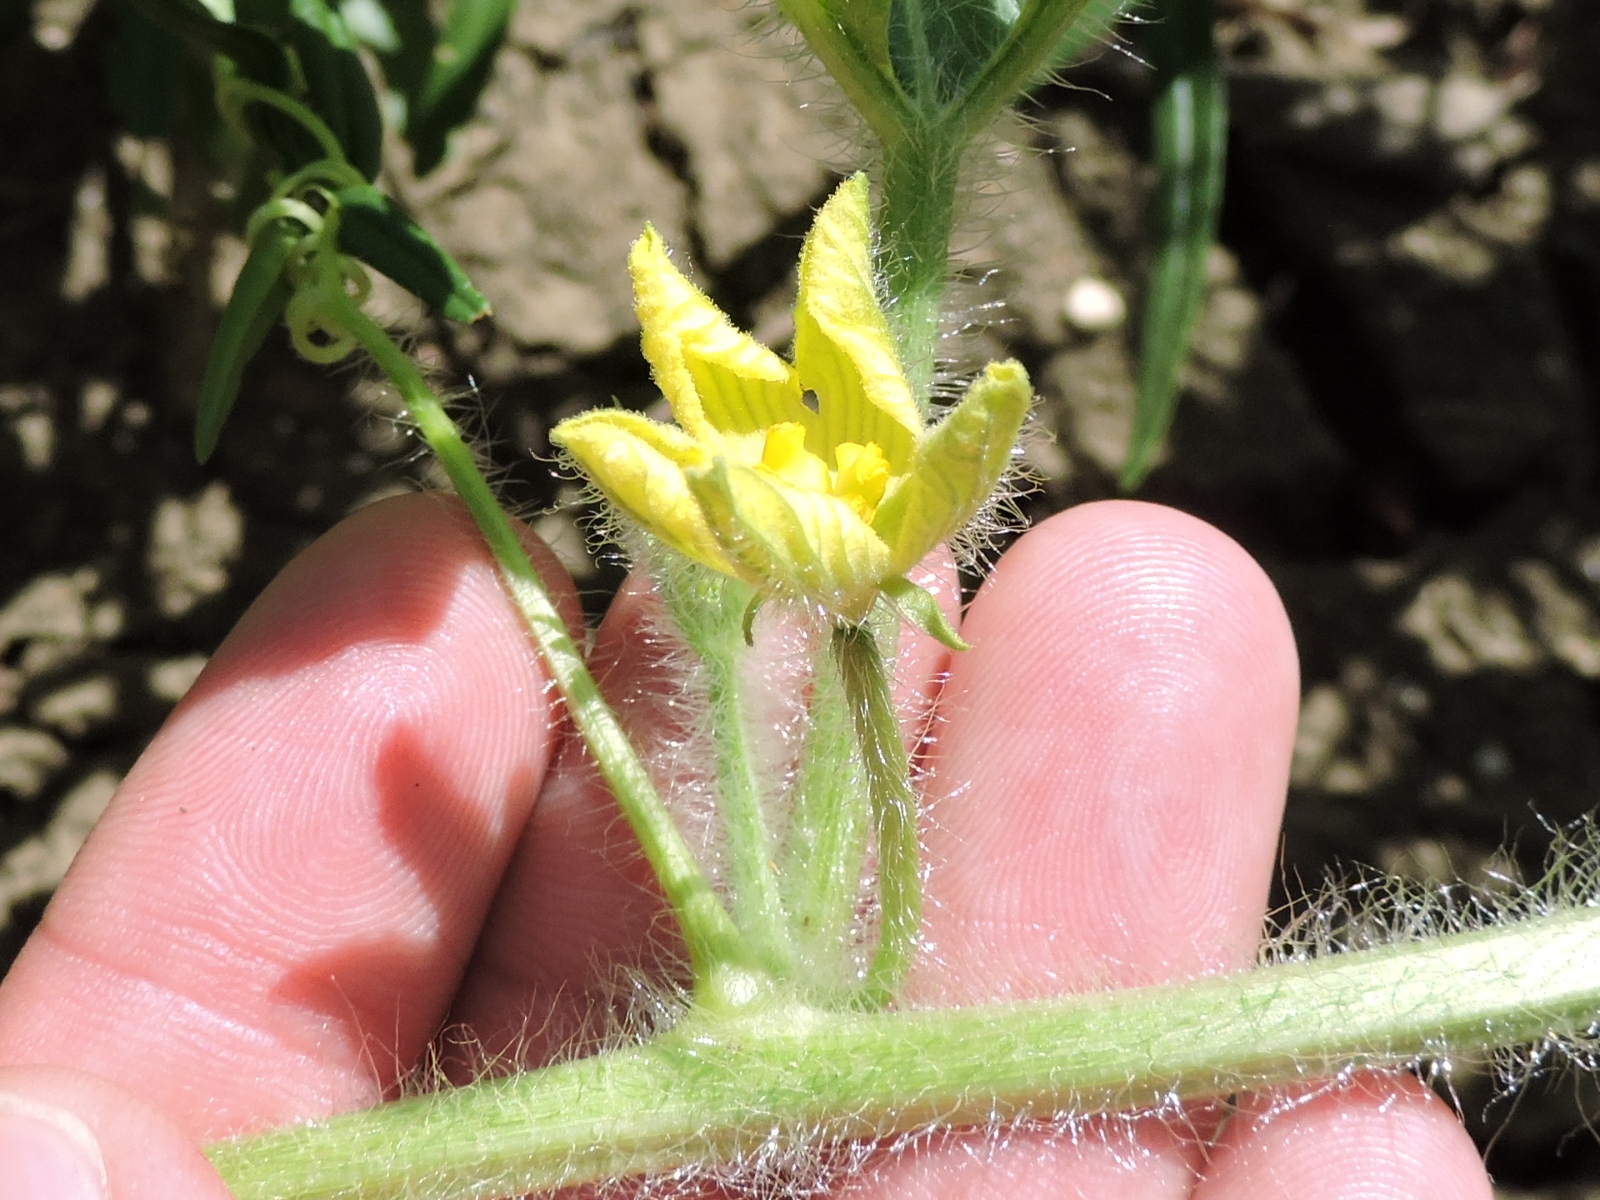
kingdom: Plantae
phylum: Tracheophyta
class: Magnoliopsida
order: Cucurbitales
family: Cucurbitaceae
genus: Citrullus
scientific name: Citrullus lanatus
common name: Watermelon
